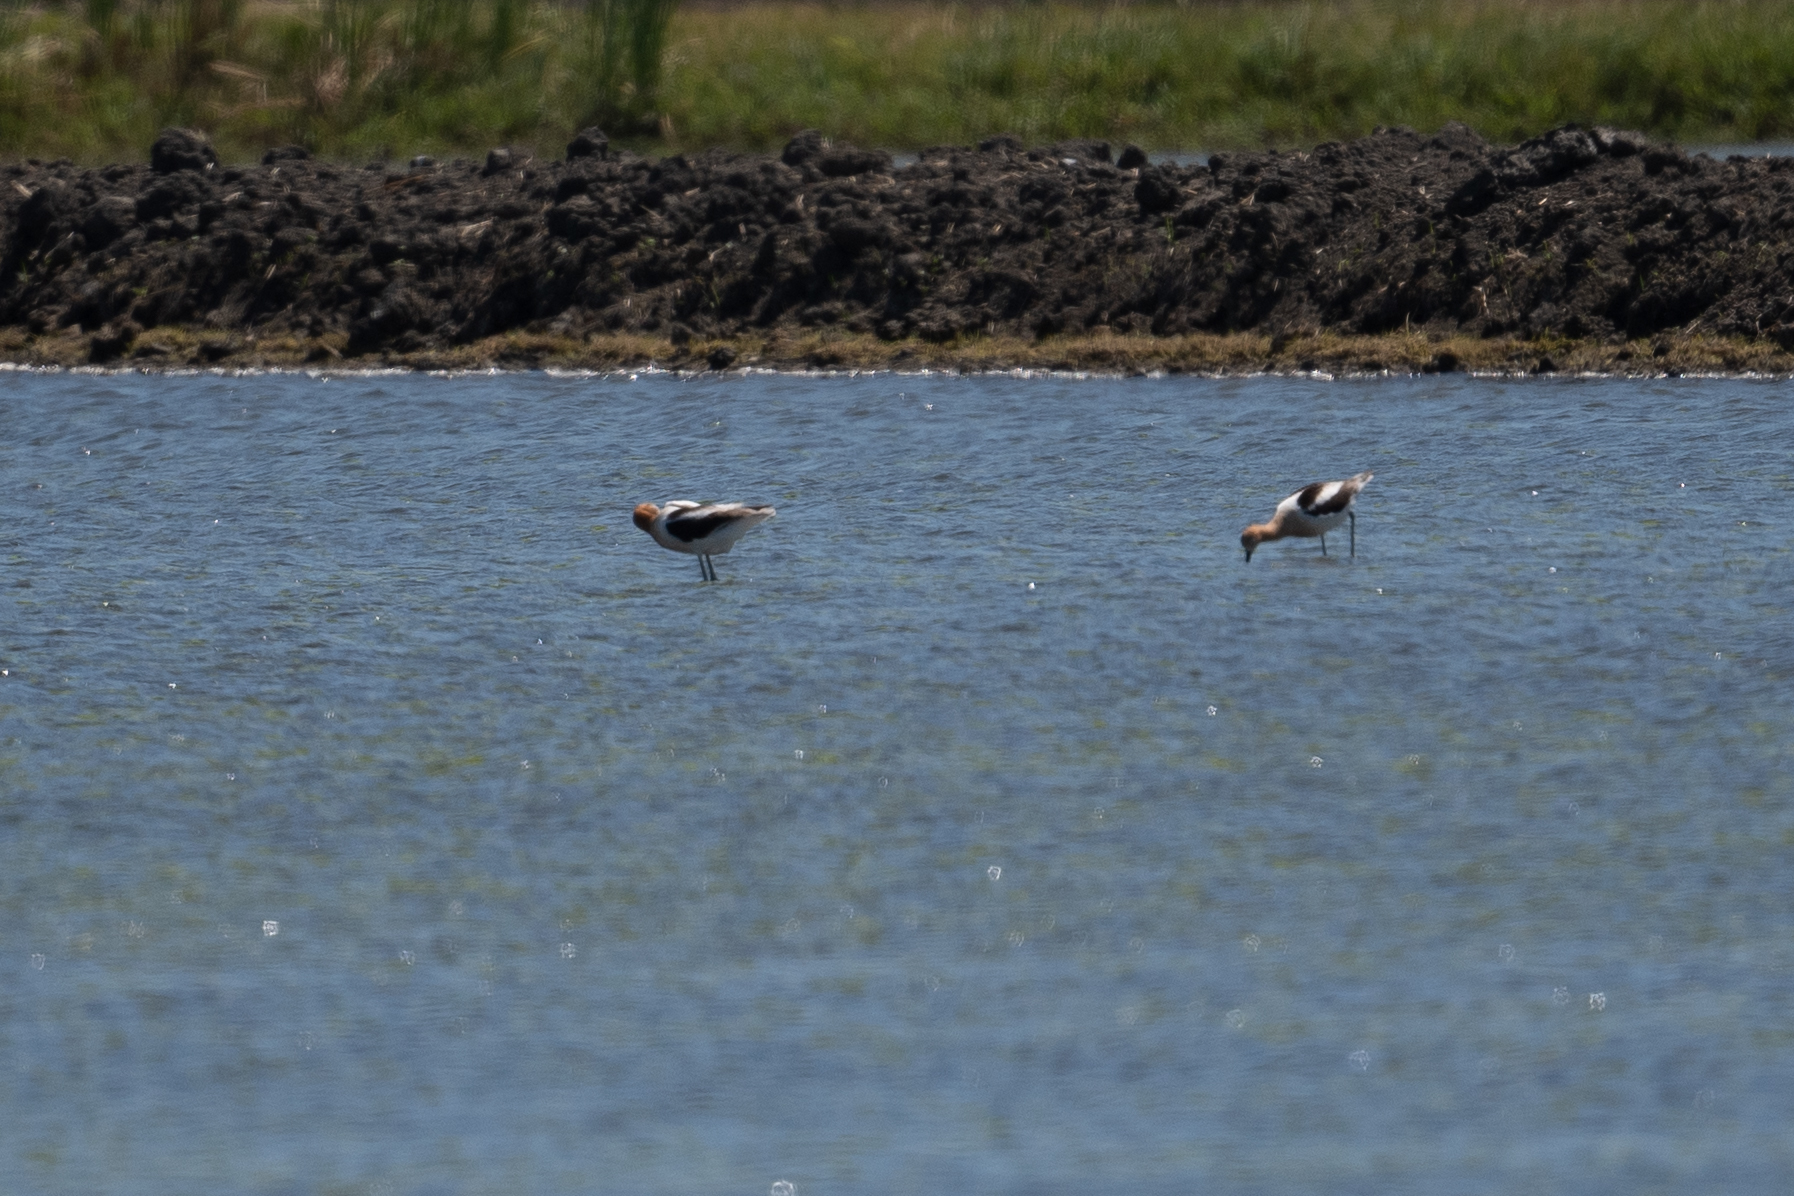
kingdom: Animalia
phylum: Chordata
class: Aves
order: Charadriiformes
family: Recurvirostridae
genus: Recurvirostra
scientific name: Recurvirostra americana
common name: American avocet
